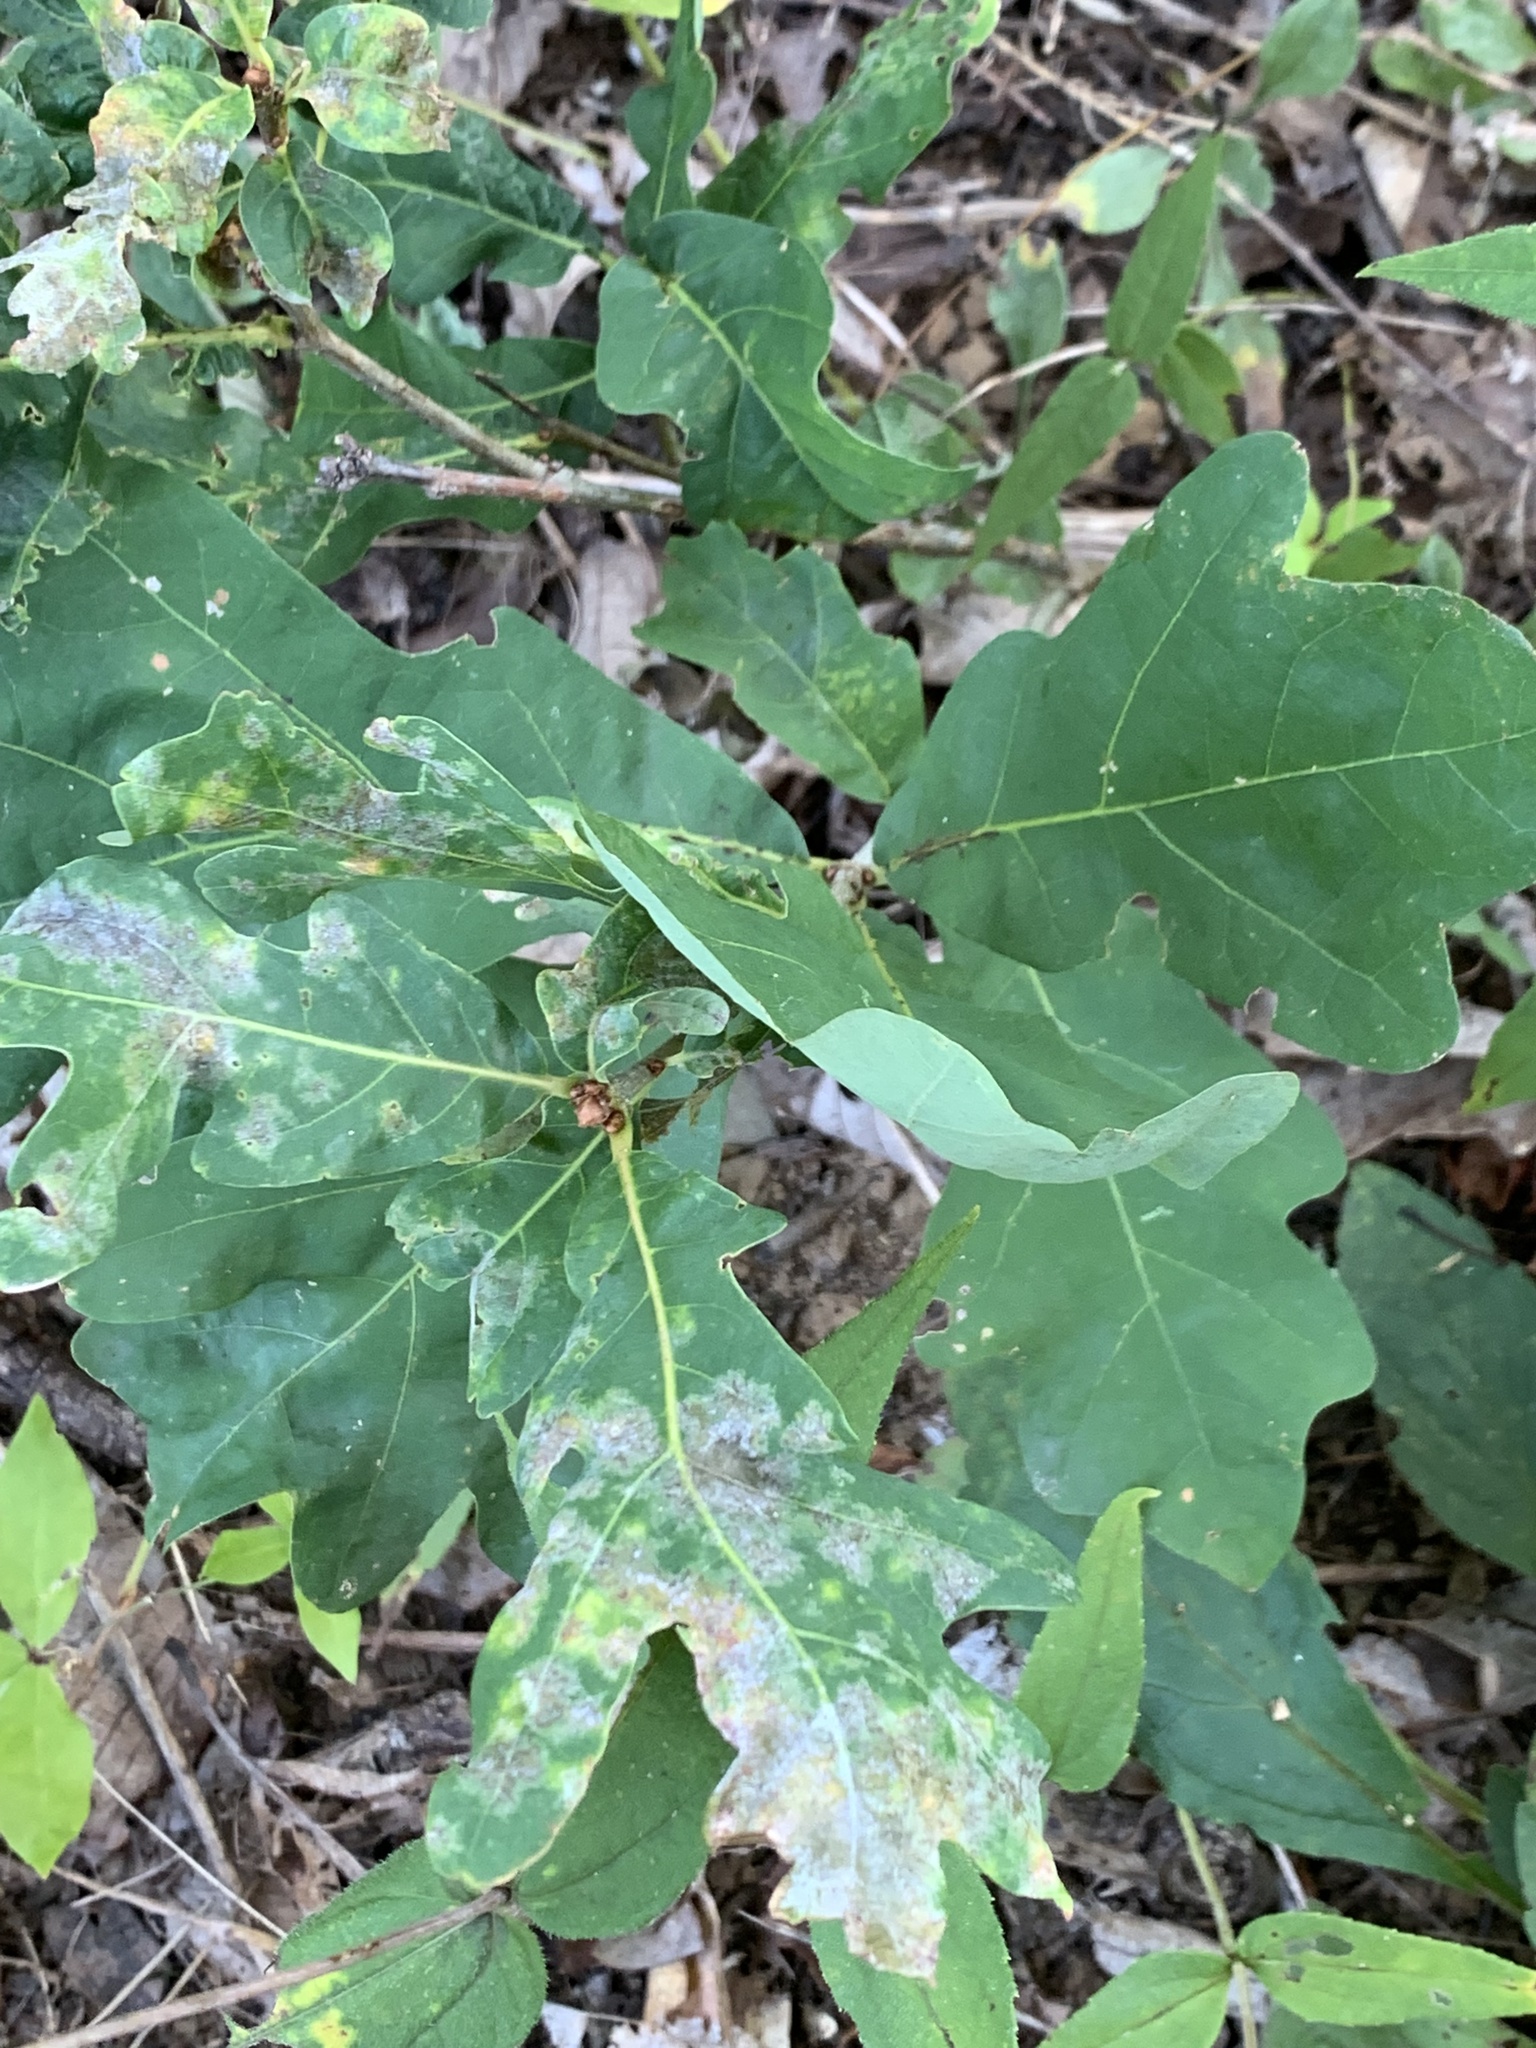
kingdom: Plantae
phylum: Tracheophyta
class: Magnoliopsida
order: Fagales
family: Fagaceae
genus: Quercus
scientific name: Quercus alba
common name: White oak
